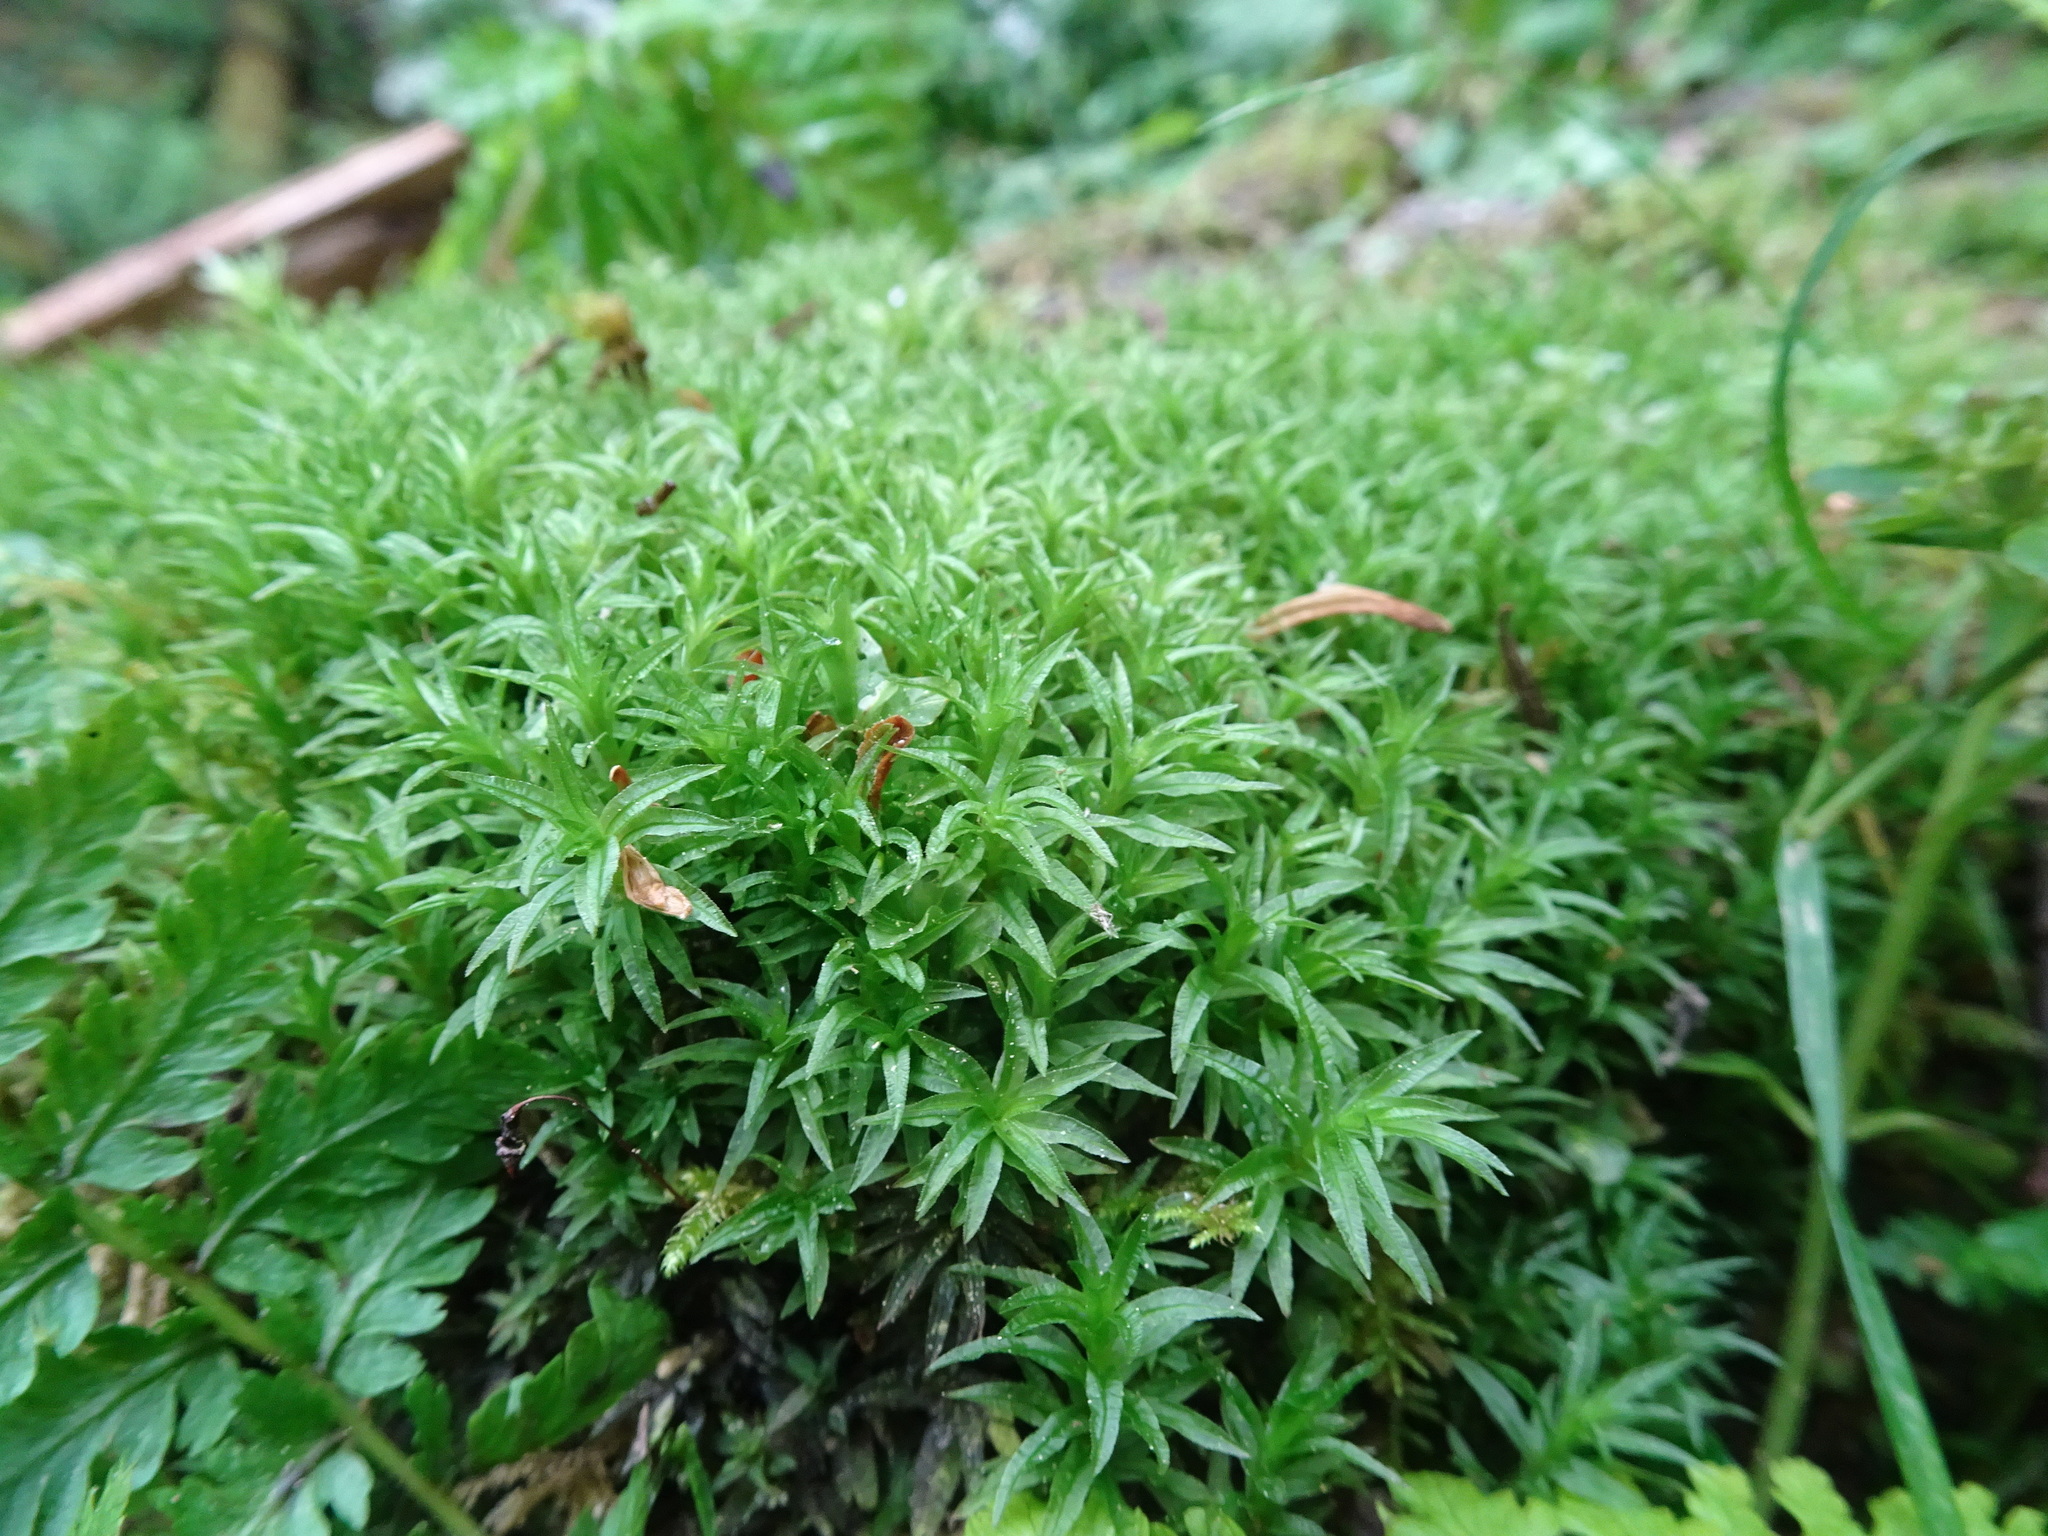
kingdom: Plantae
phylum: Bryophyta
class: Polytrichopsida
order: Polytrichales
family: Polytrichaceae
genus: Atrichum
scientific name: Atrichum undulatum
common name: Common smoothcap
